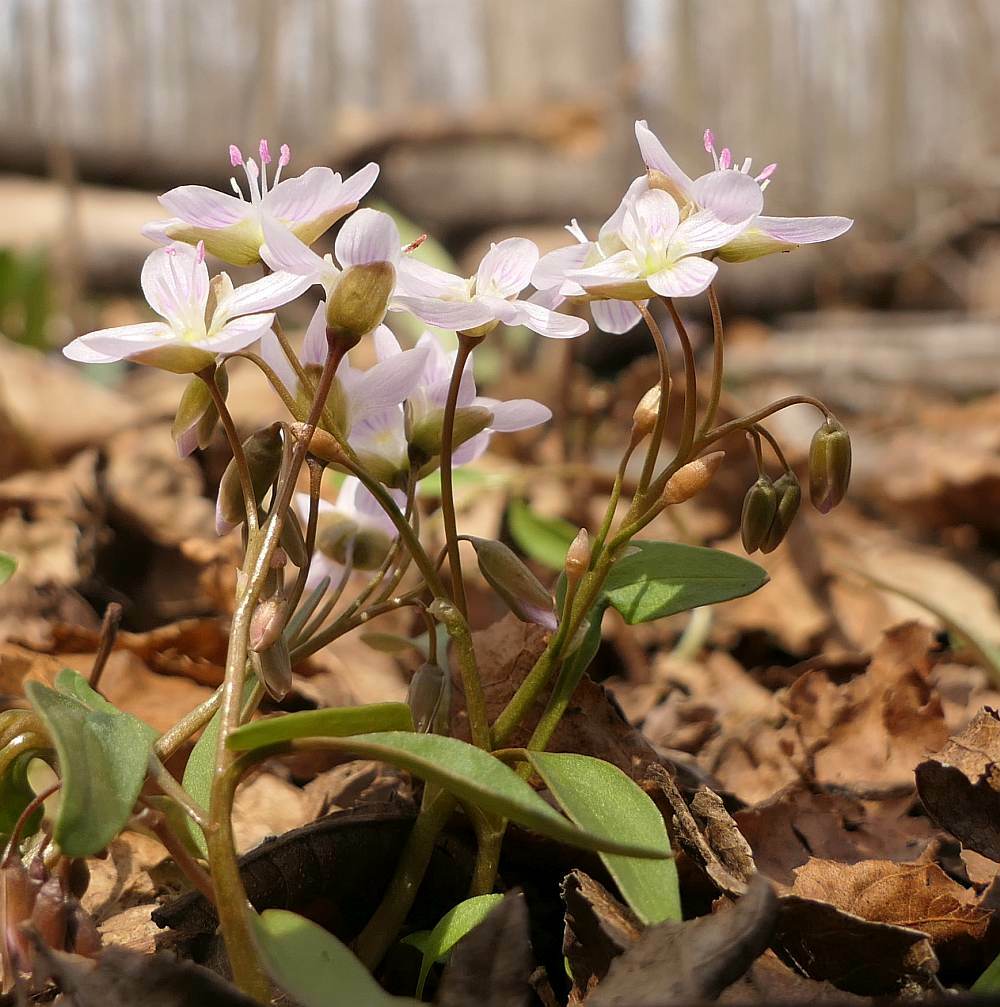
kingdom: Plantae
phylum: Tracheophyta
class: Magnoliopsida
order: Caryophyllales
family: Montiaceae
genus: Claytonia
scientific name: Claytonia caroliniana
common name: Carolina spring beauty
